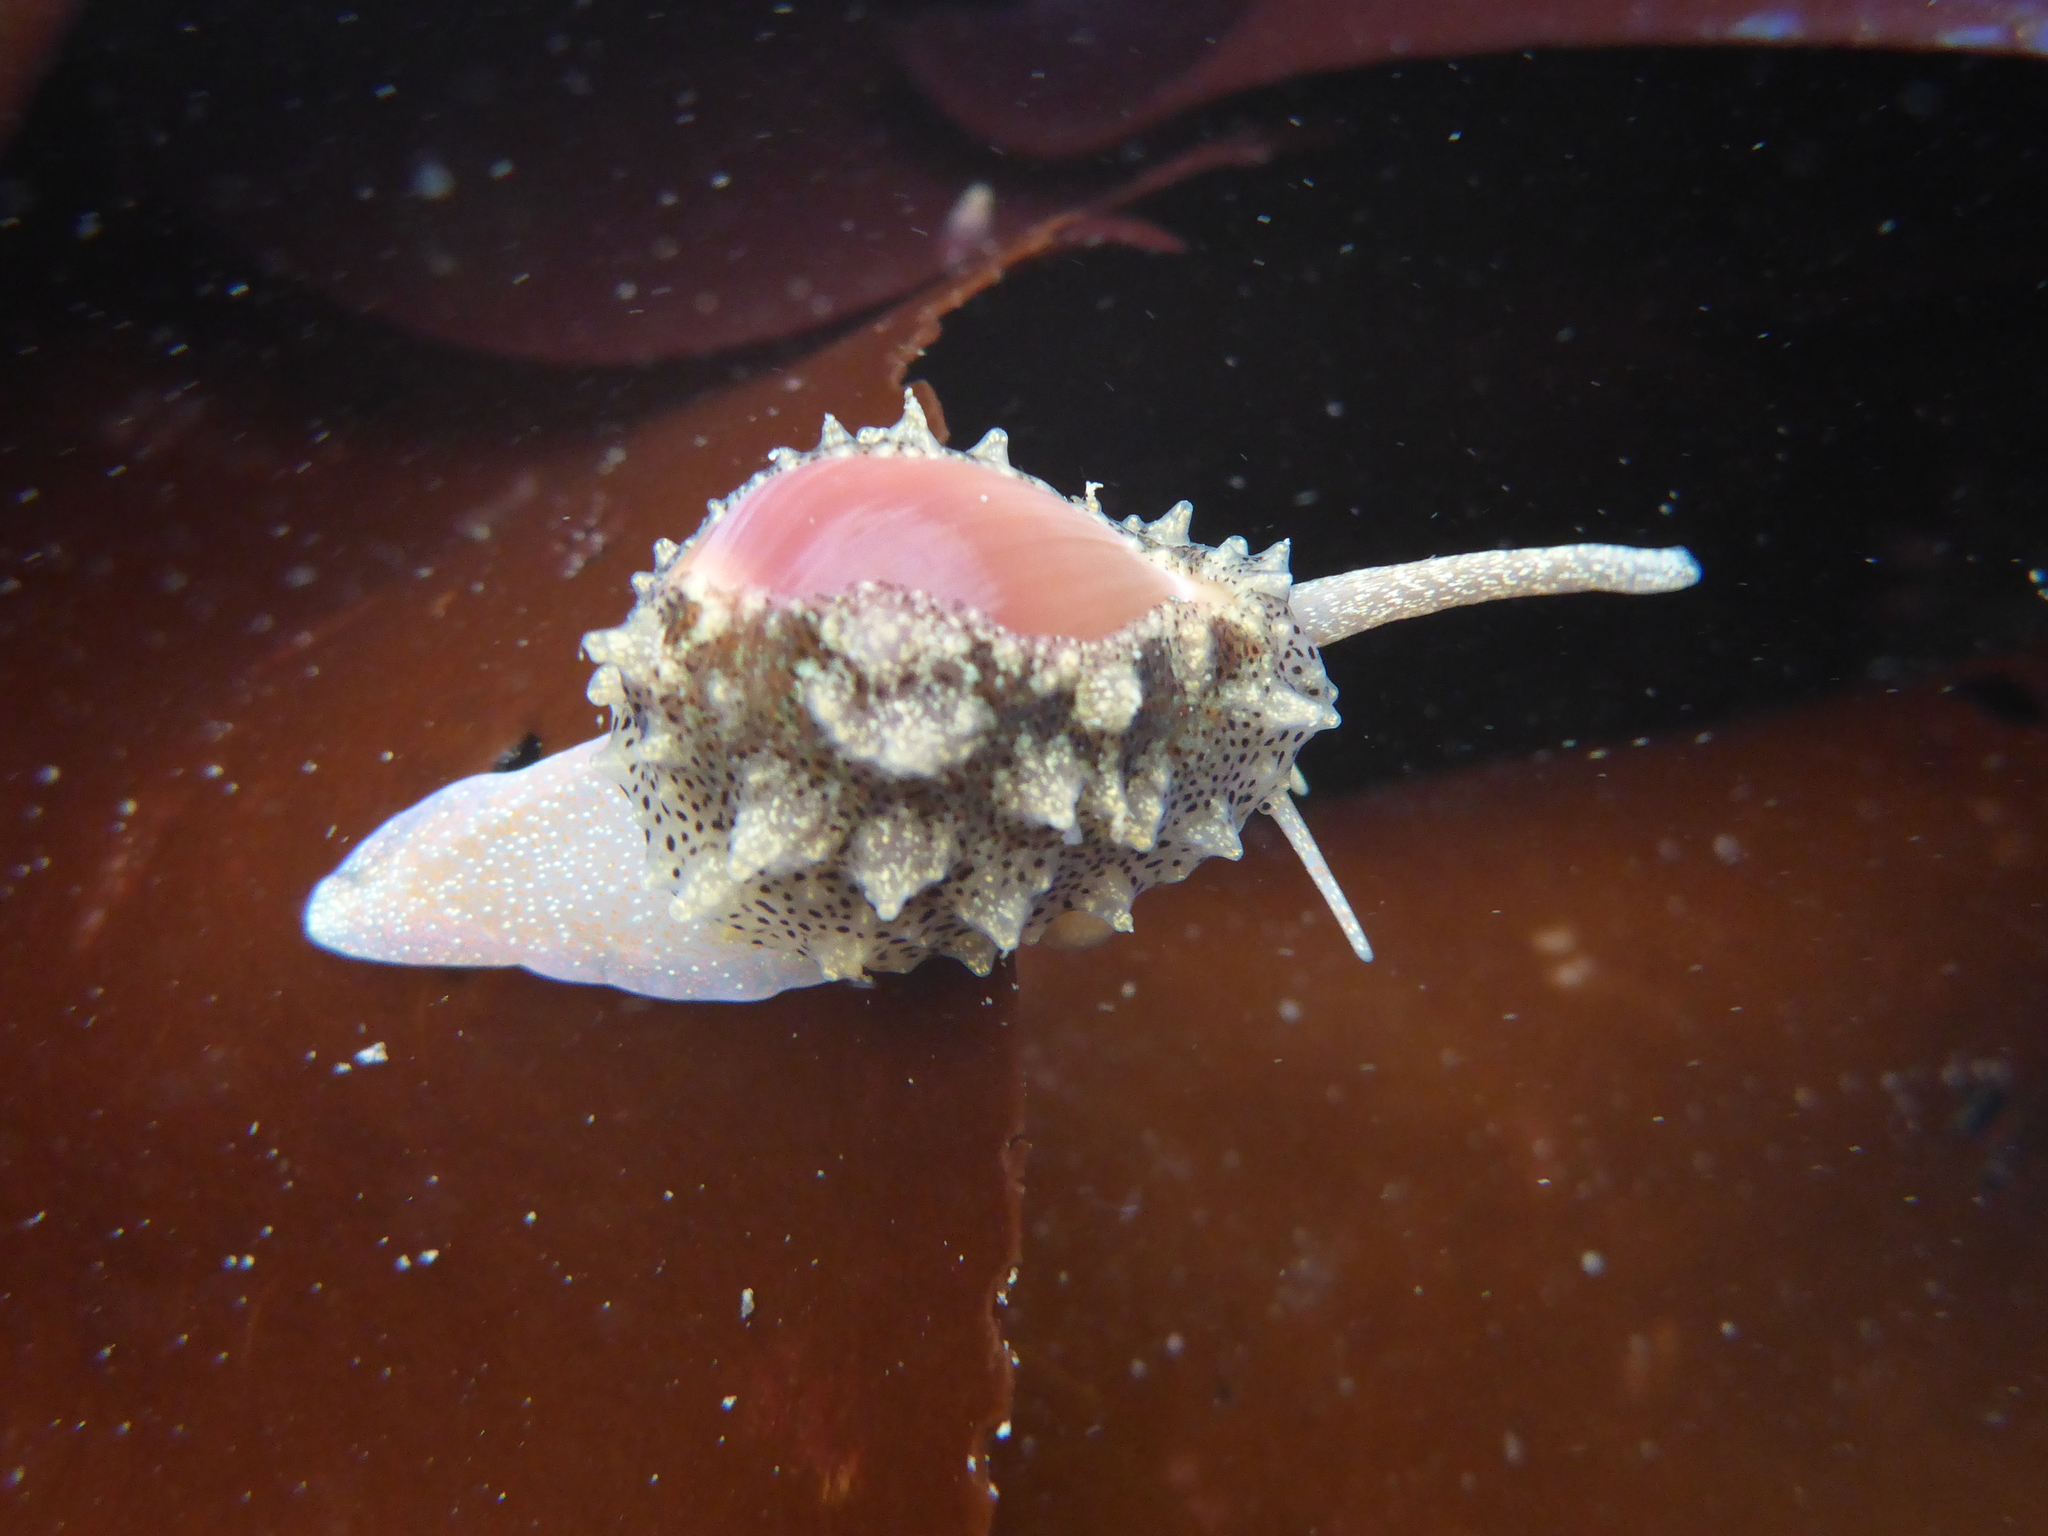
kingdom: Animalia
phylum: Mollusca
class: Gastropoda
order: Littorinimorpha
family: Eratoidae
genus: Hespererato
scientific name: Hespererato vitellina
